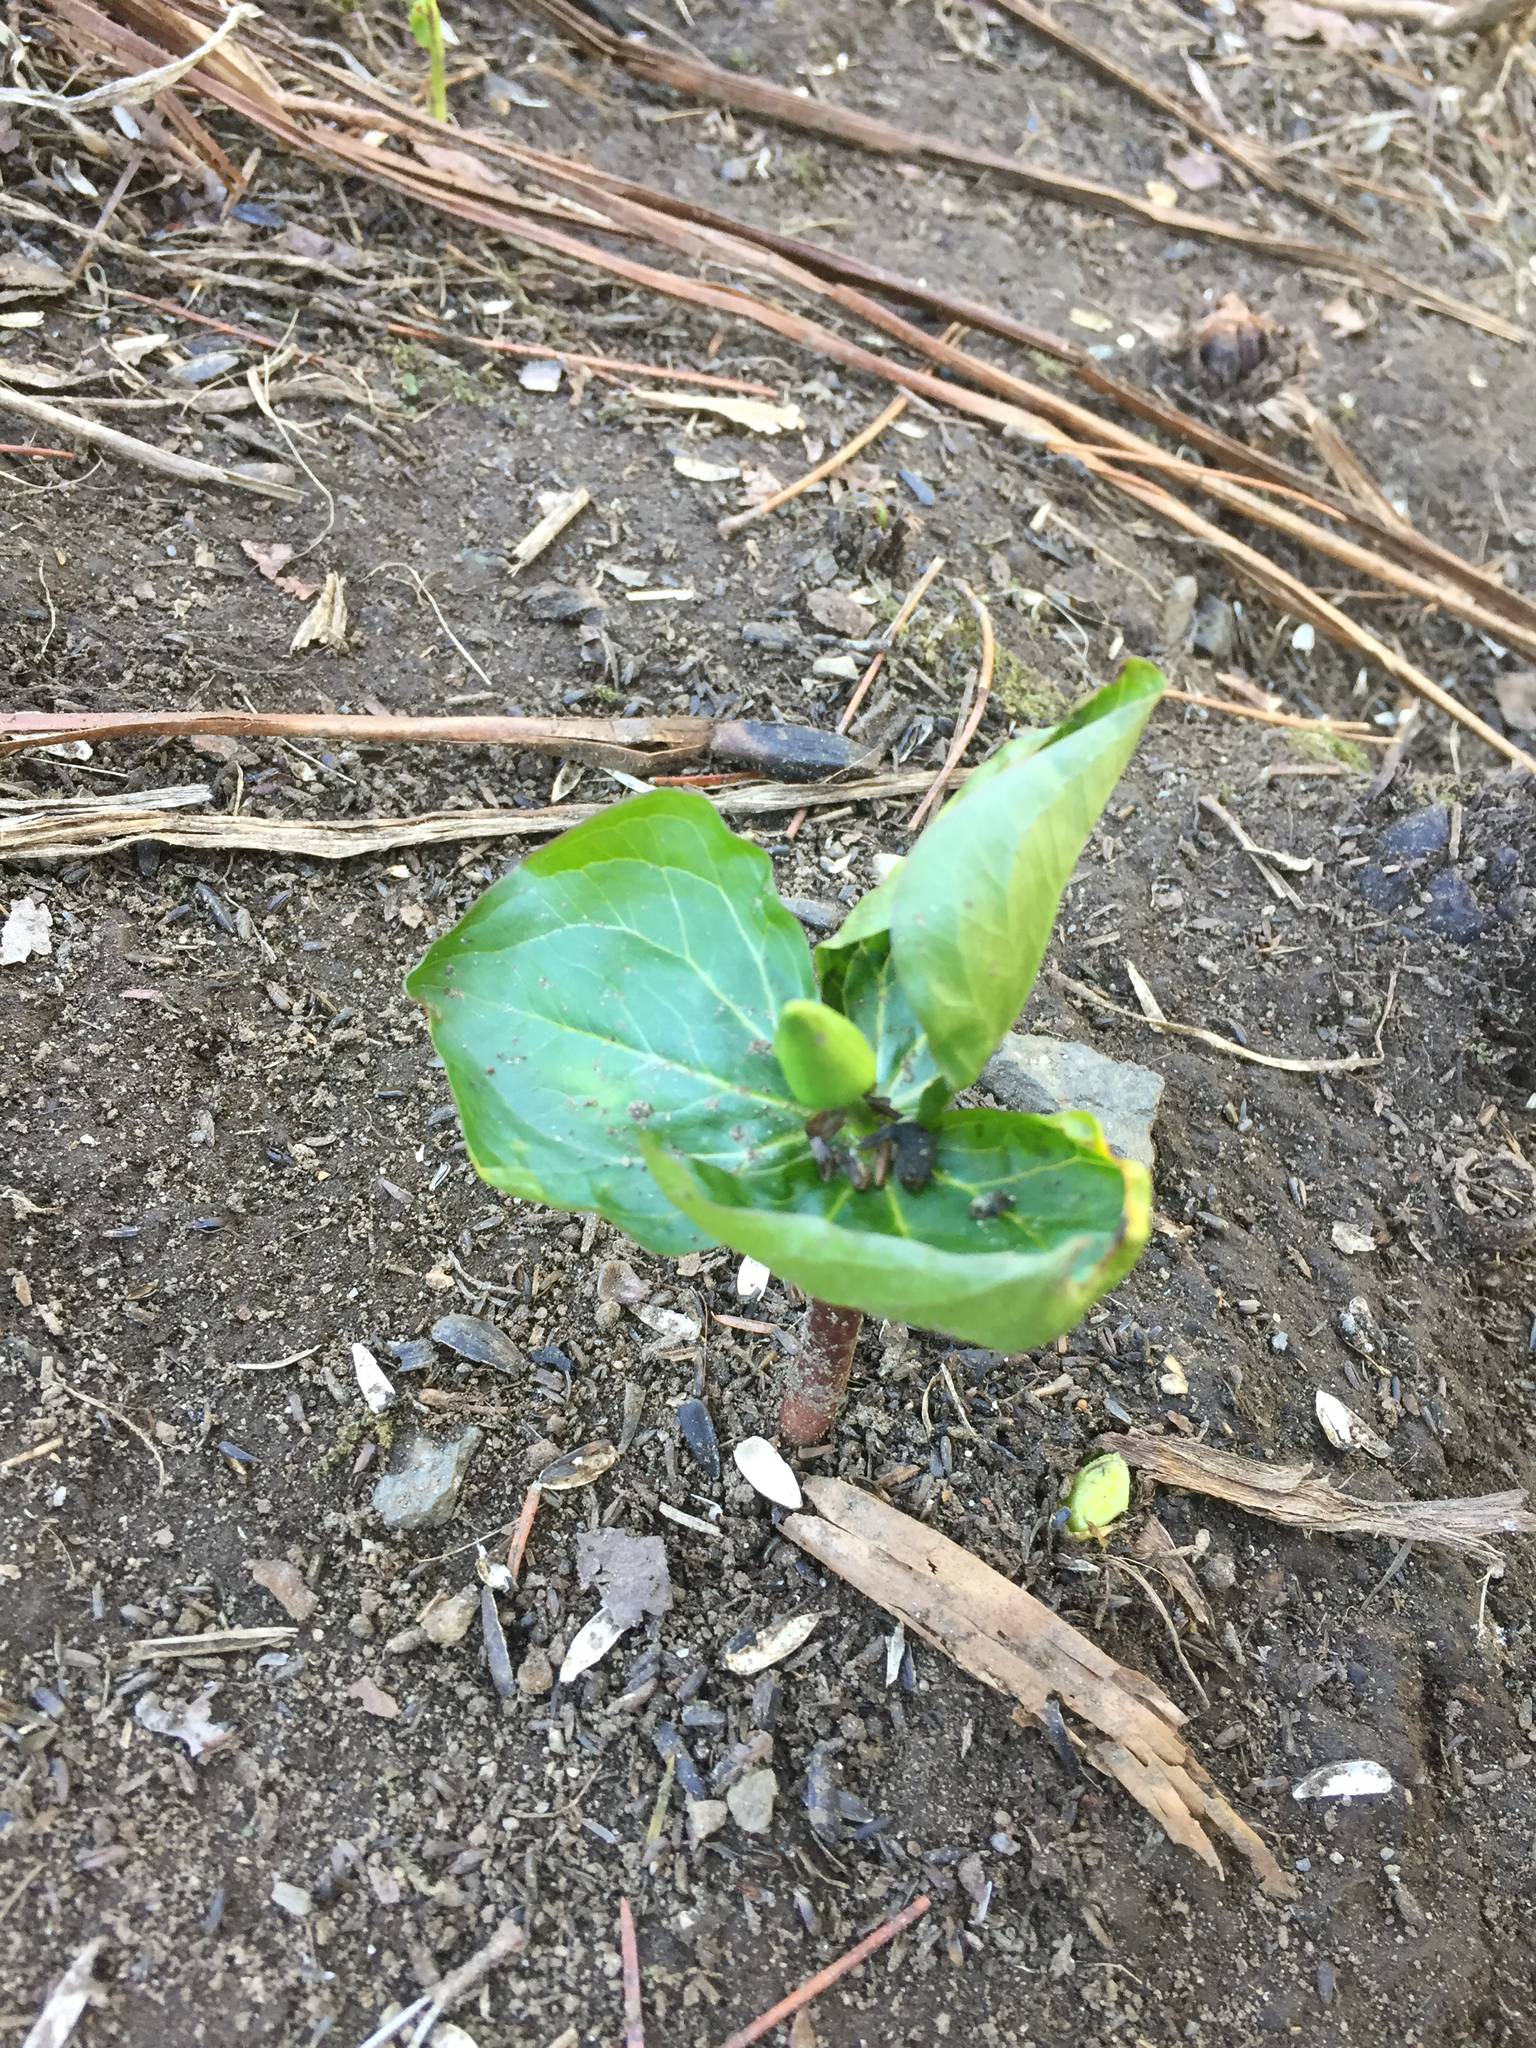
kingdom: Plantae
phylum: Tracheophyta
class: Liliopsida
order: Liliales
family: Melanthiaceae
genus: Trillium
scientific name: Trillium erectum
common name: Purple trillium
